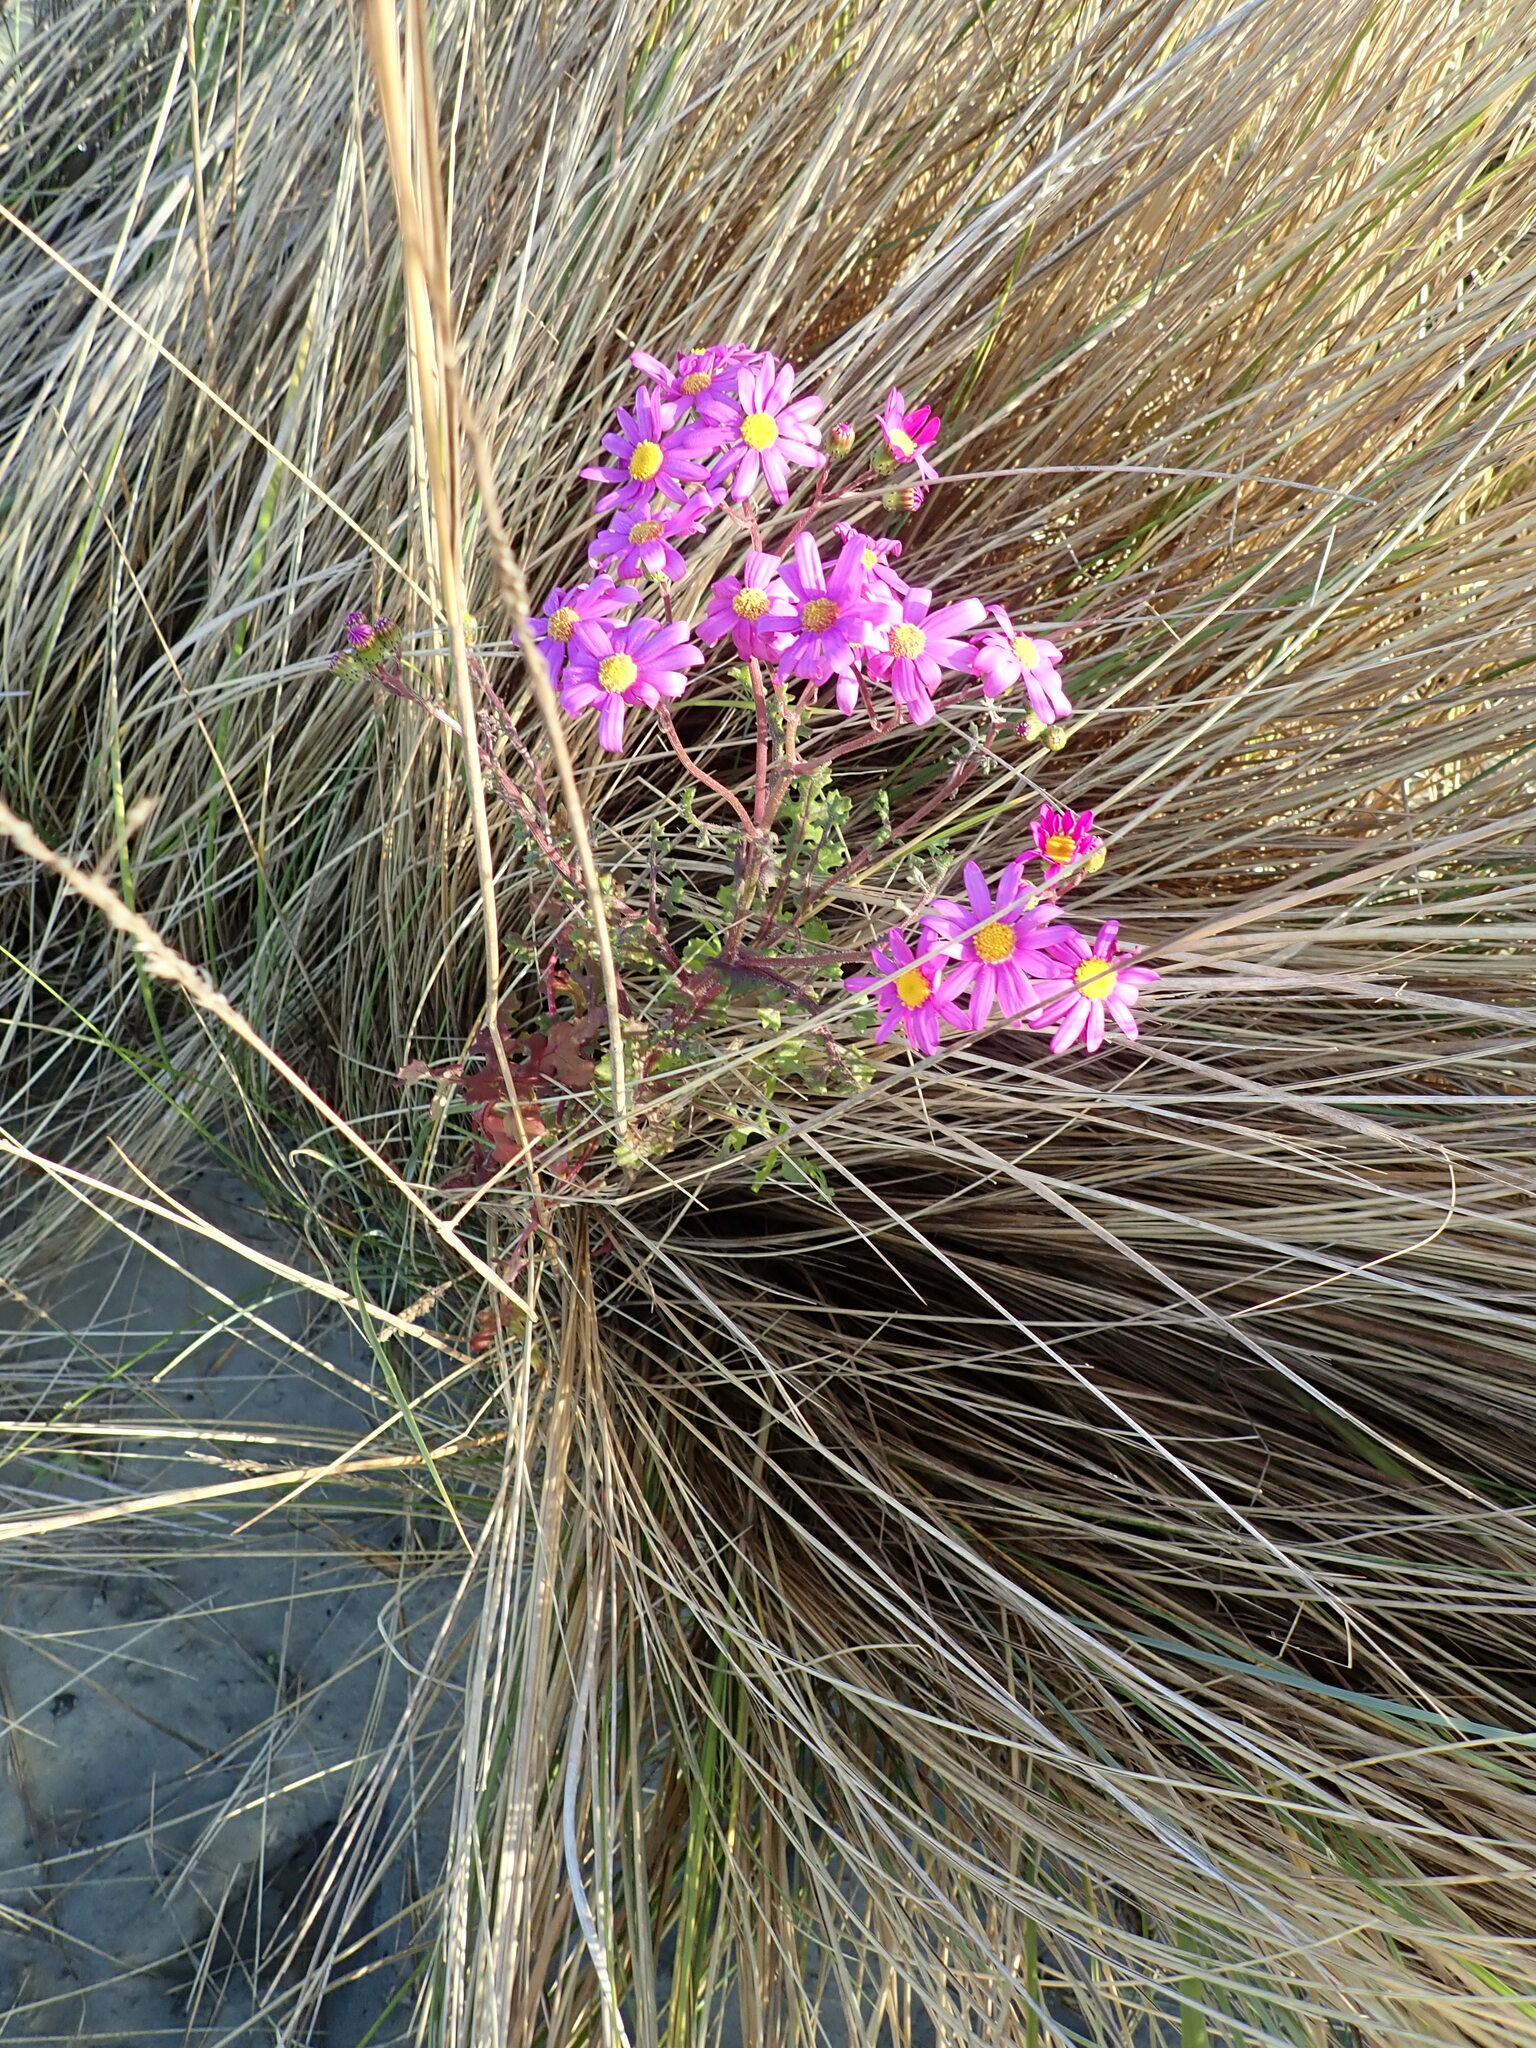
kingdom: Plantae
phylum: Tracheophyta
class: Magnoliopsida
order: Asterales
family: Asteraceae
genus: Senecio
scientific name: Senecio elegans
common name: Purple groundsel
